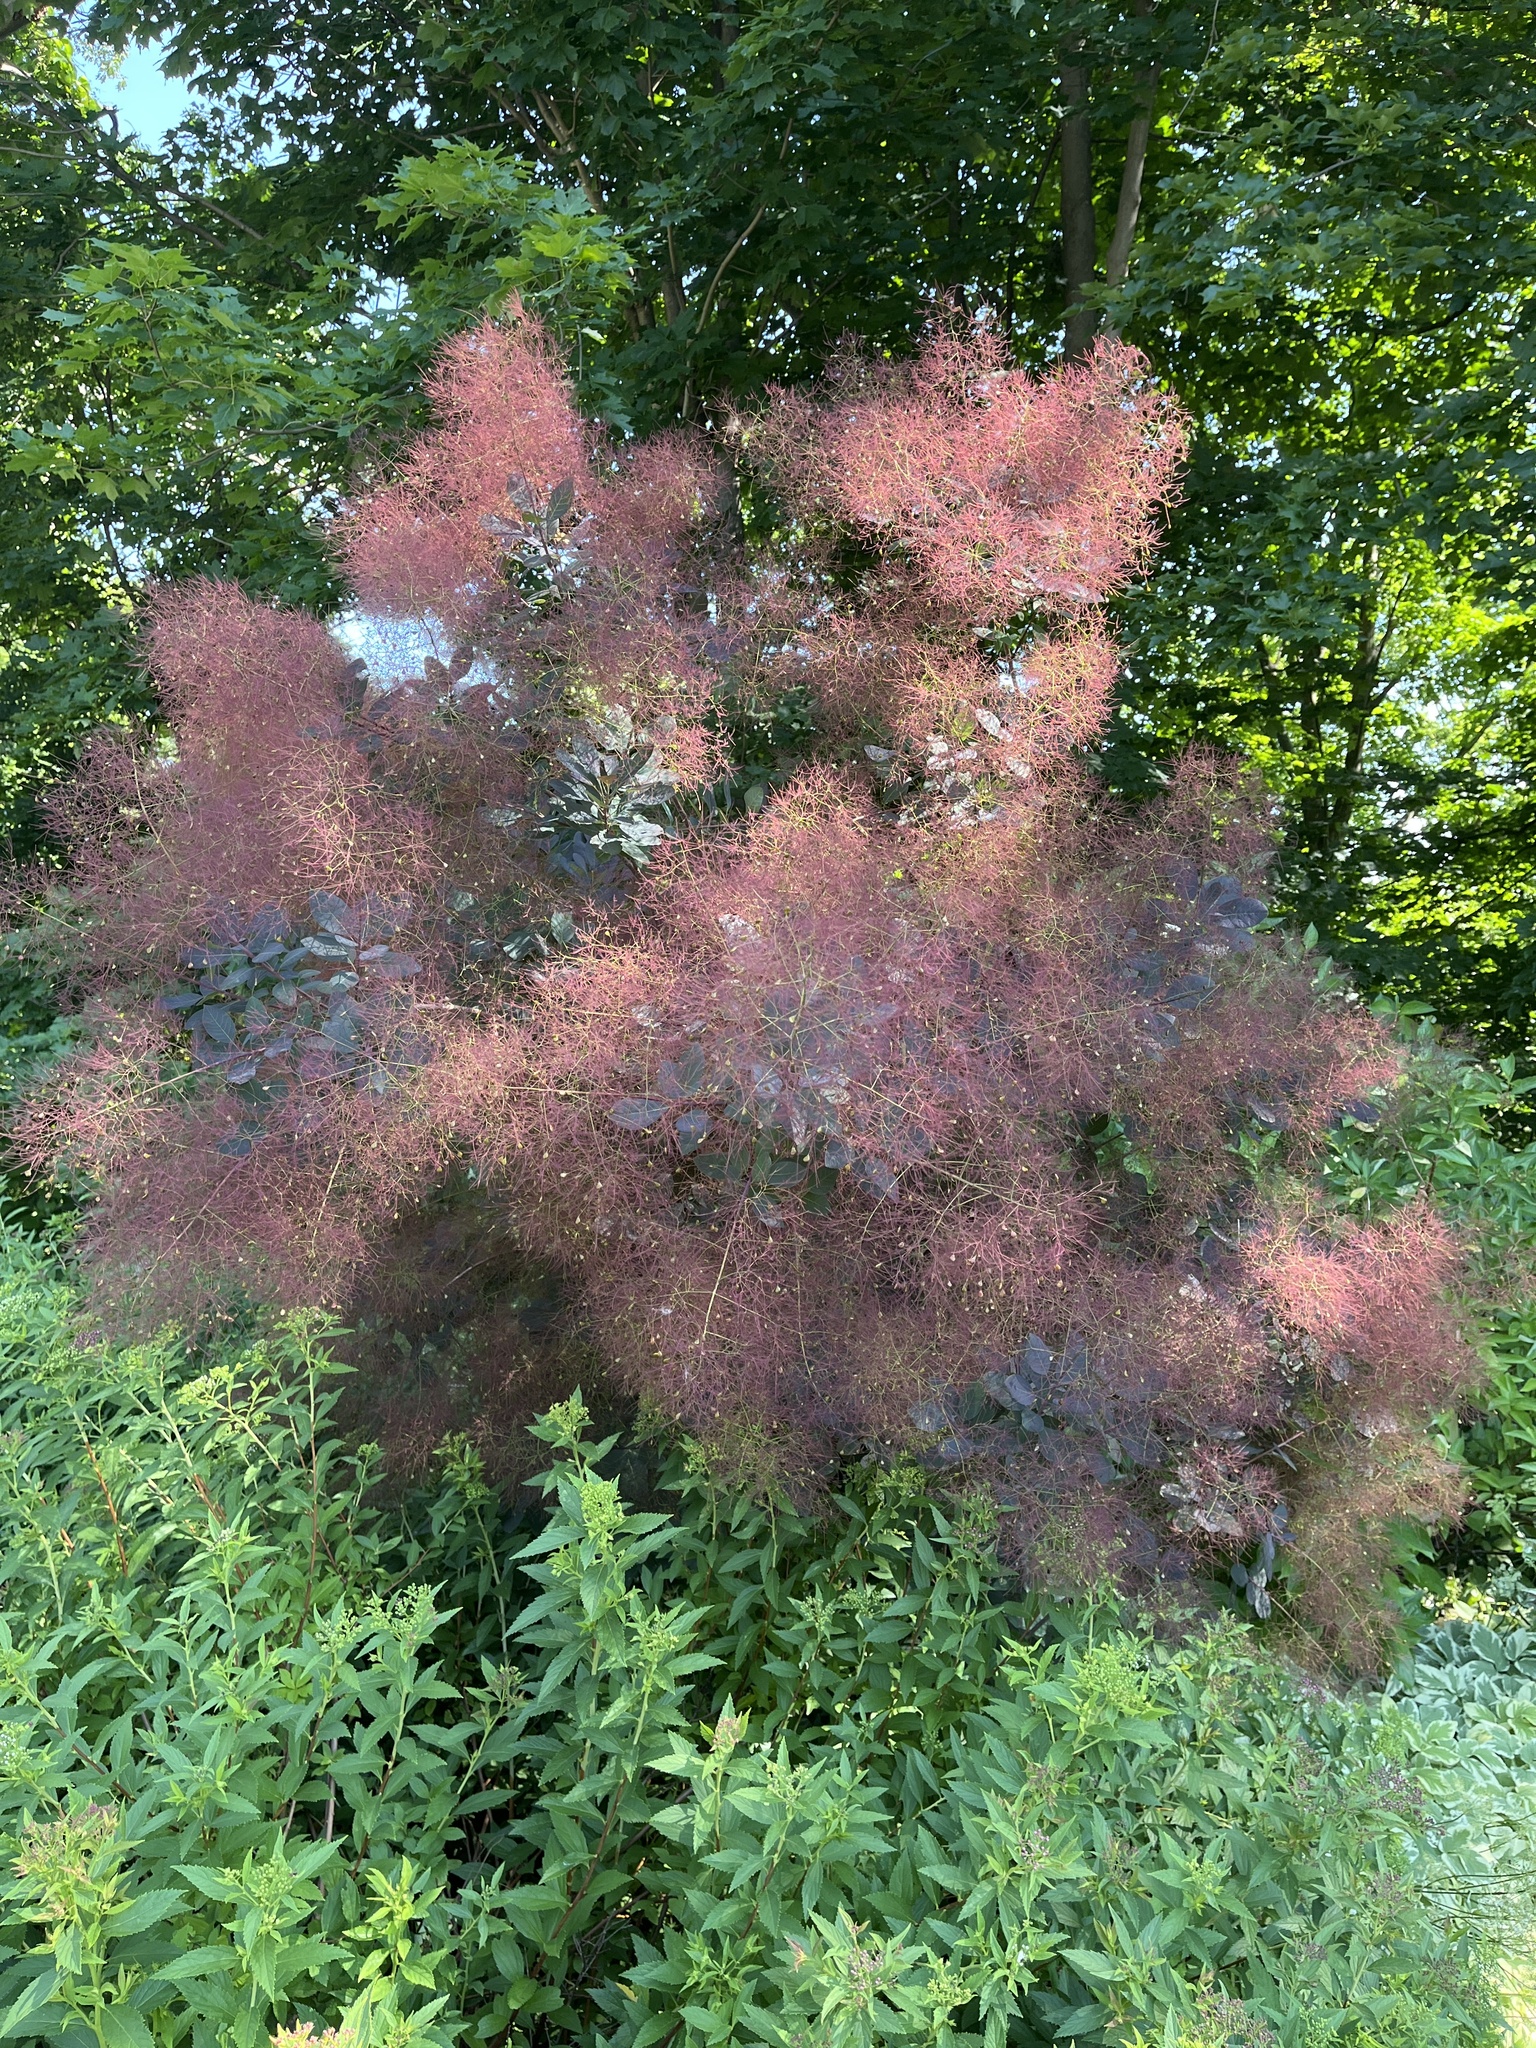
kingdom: Plantae
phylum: Tracheophyta
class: Magnoliopsida
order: Sapindales
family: Anacardiaceae
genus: Cotinus
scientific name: Cotinus coggygria
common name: Smoke-tree
